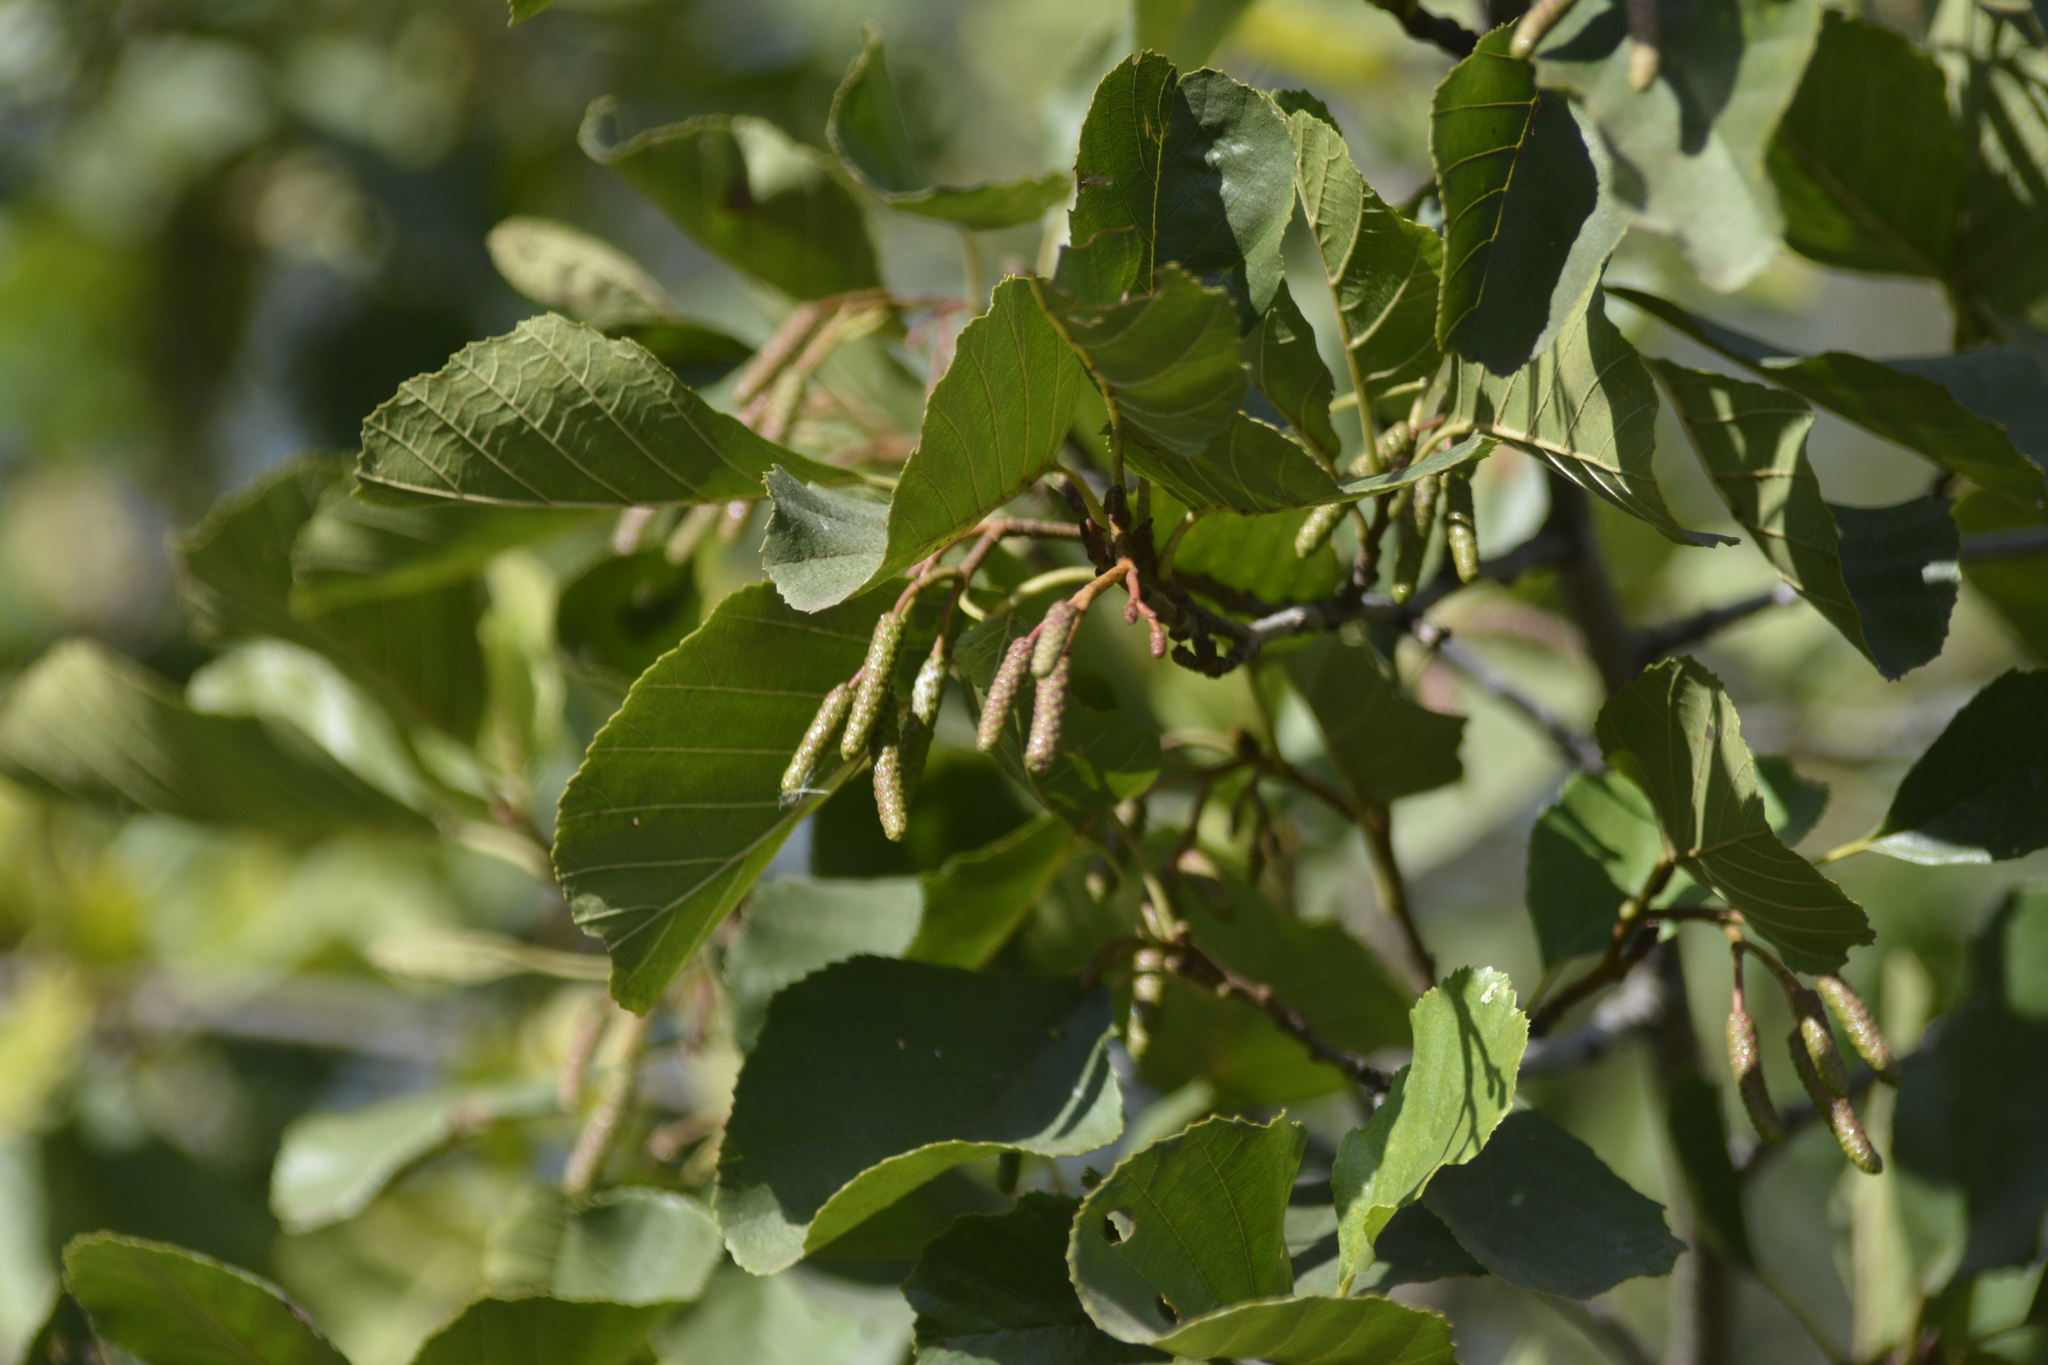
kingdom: Plantae
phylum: Tracheophyta
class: Magnoliopsida
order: Fagales
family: Betulaceae
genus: Alnus
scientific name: Alnus glutinosa
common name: Black alder
